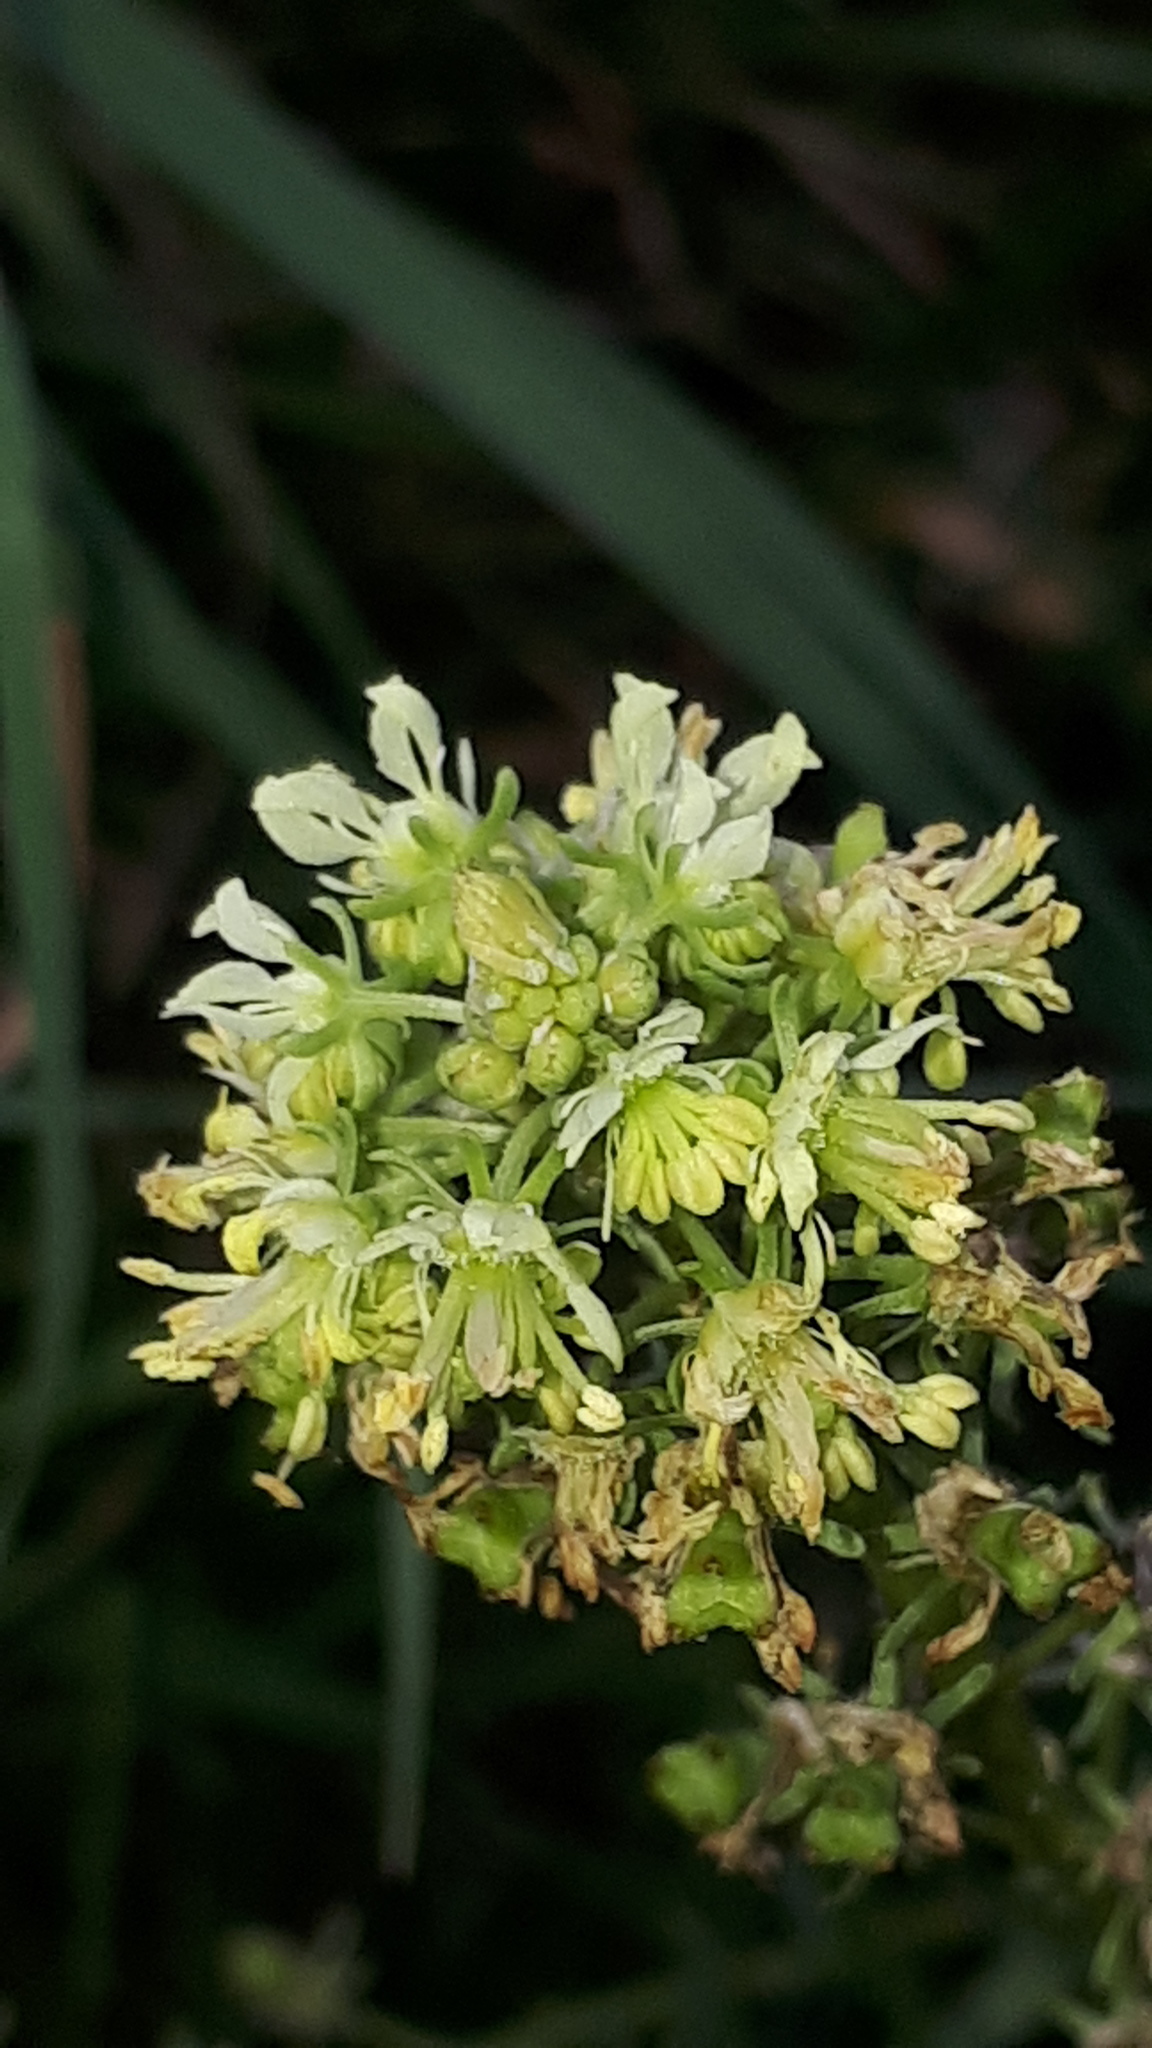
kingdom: Plantae
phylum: Tracheophyta
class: Magnoliopsida
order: Brassicales
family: Resedaceae
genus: Reseda
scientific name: Reseda lutea
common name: Wild mignonette
